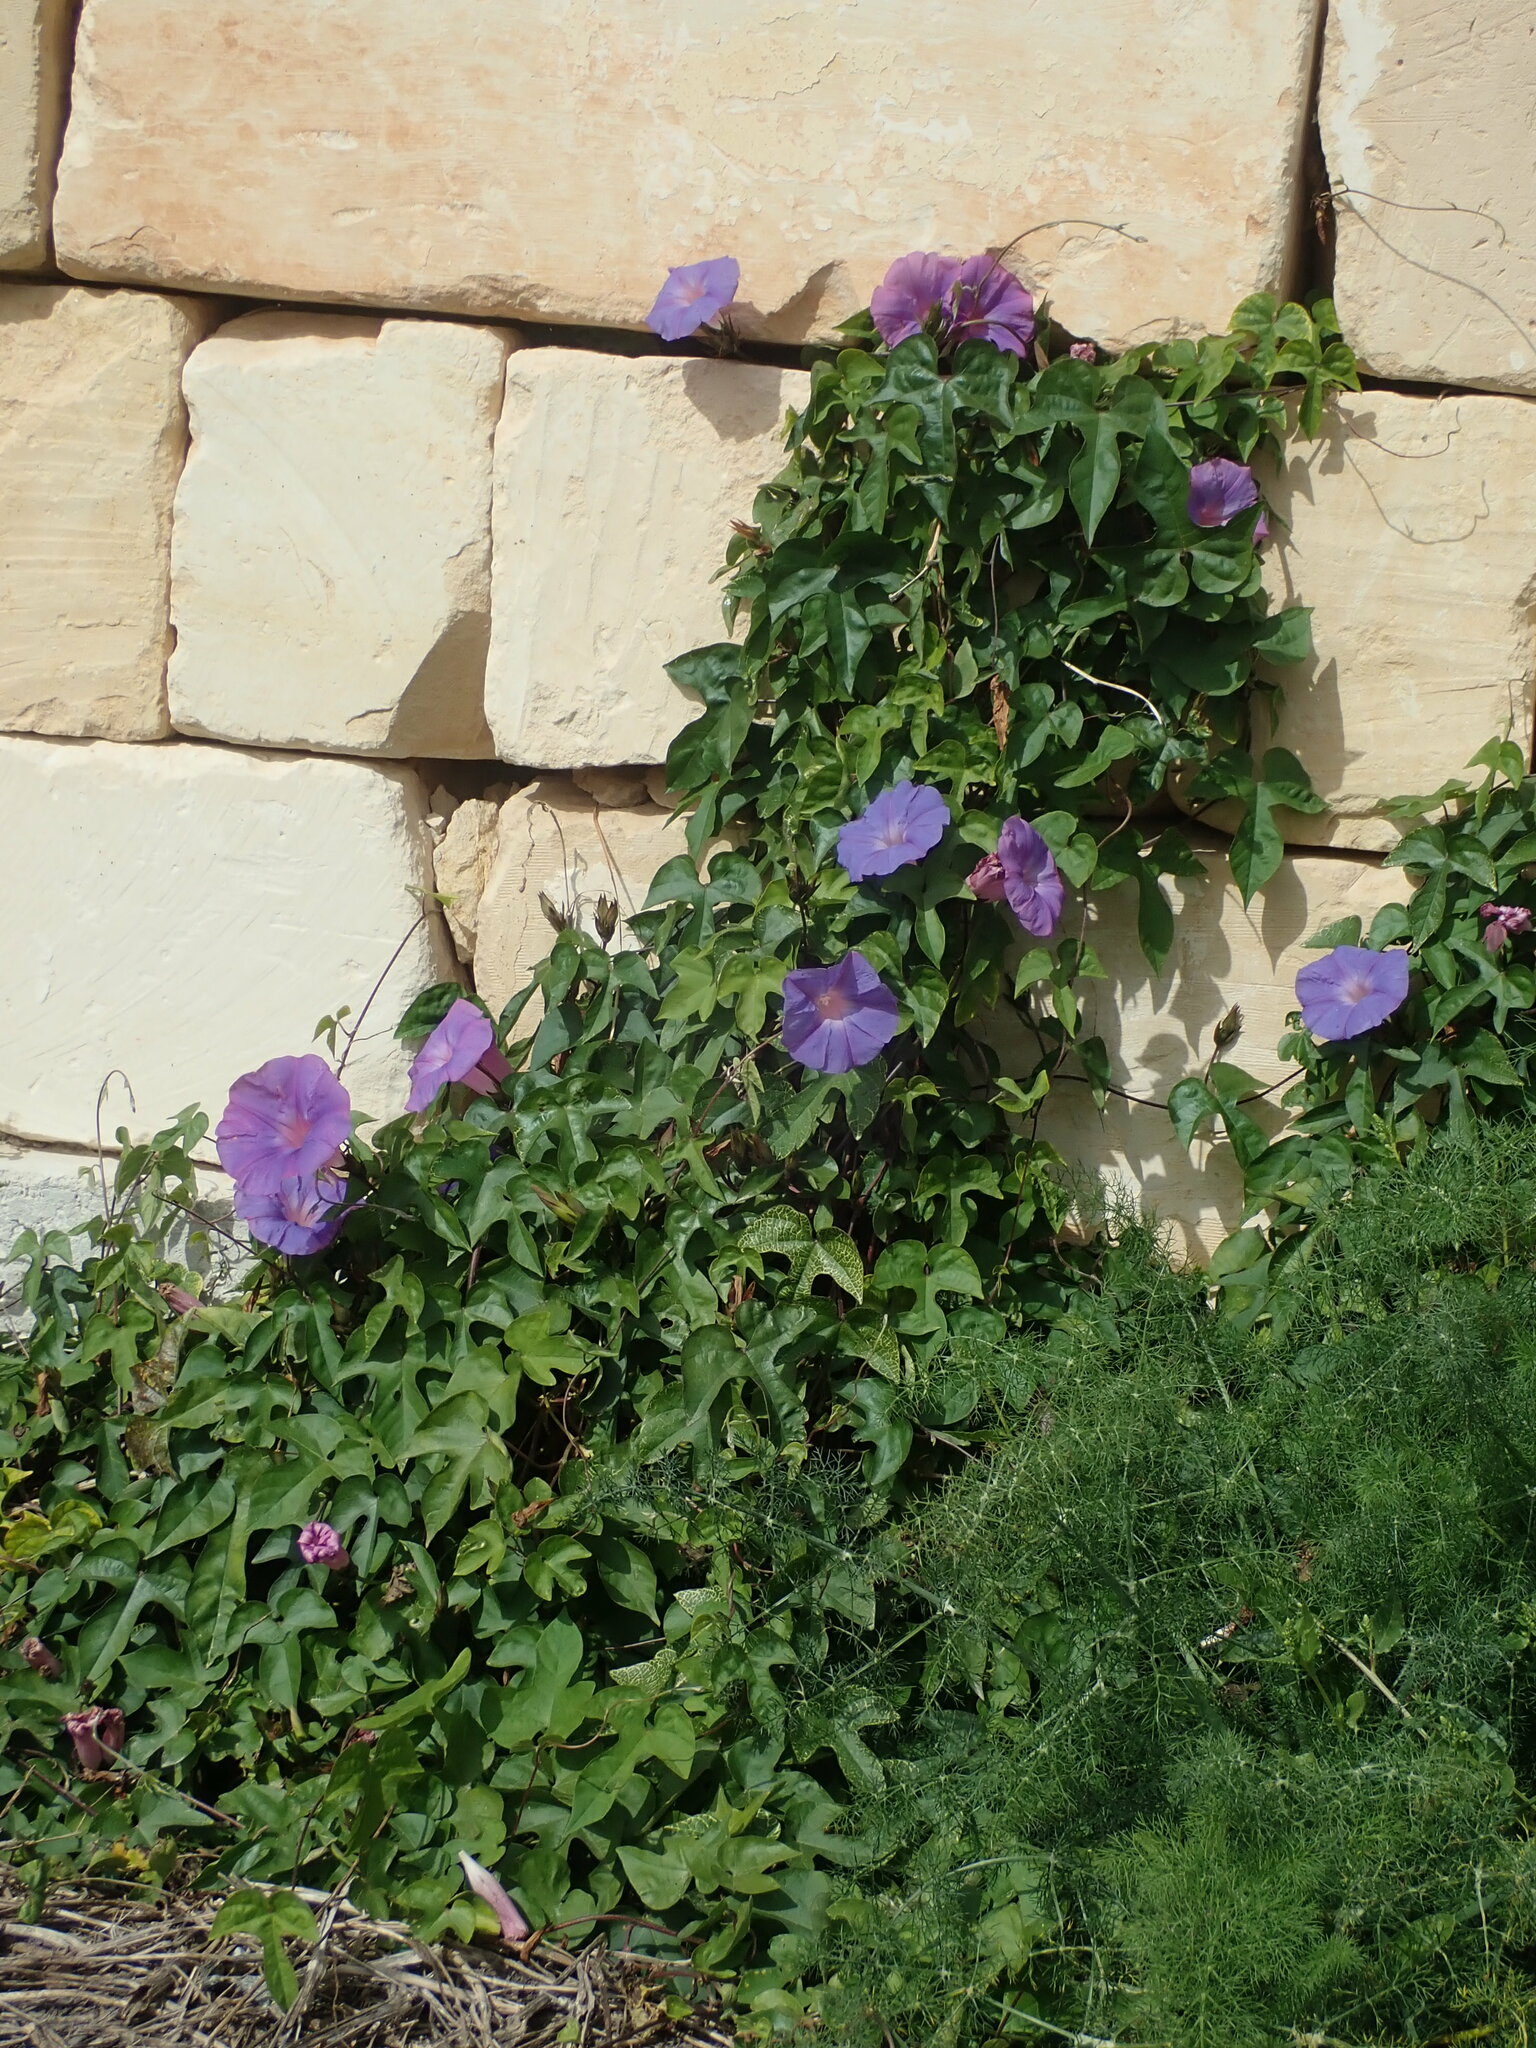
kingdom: Plantae
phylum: Tracheophyta
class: Magnoliopsida
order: Solanales
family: Convolvulaceae
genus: Ipomoea
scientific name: Ipomoea indica
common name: Blue dawnflower
